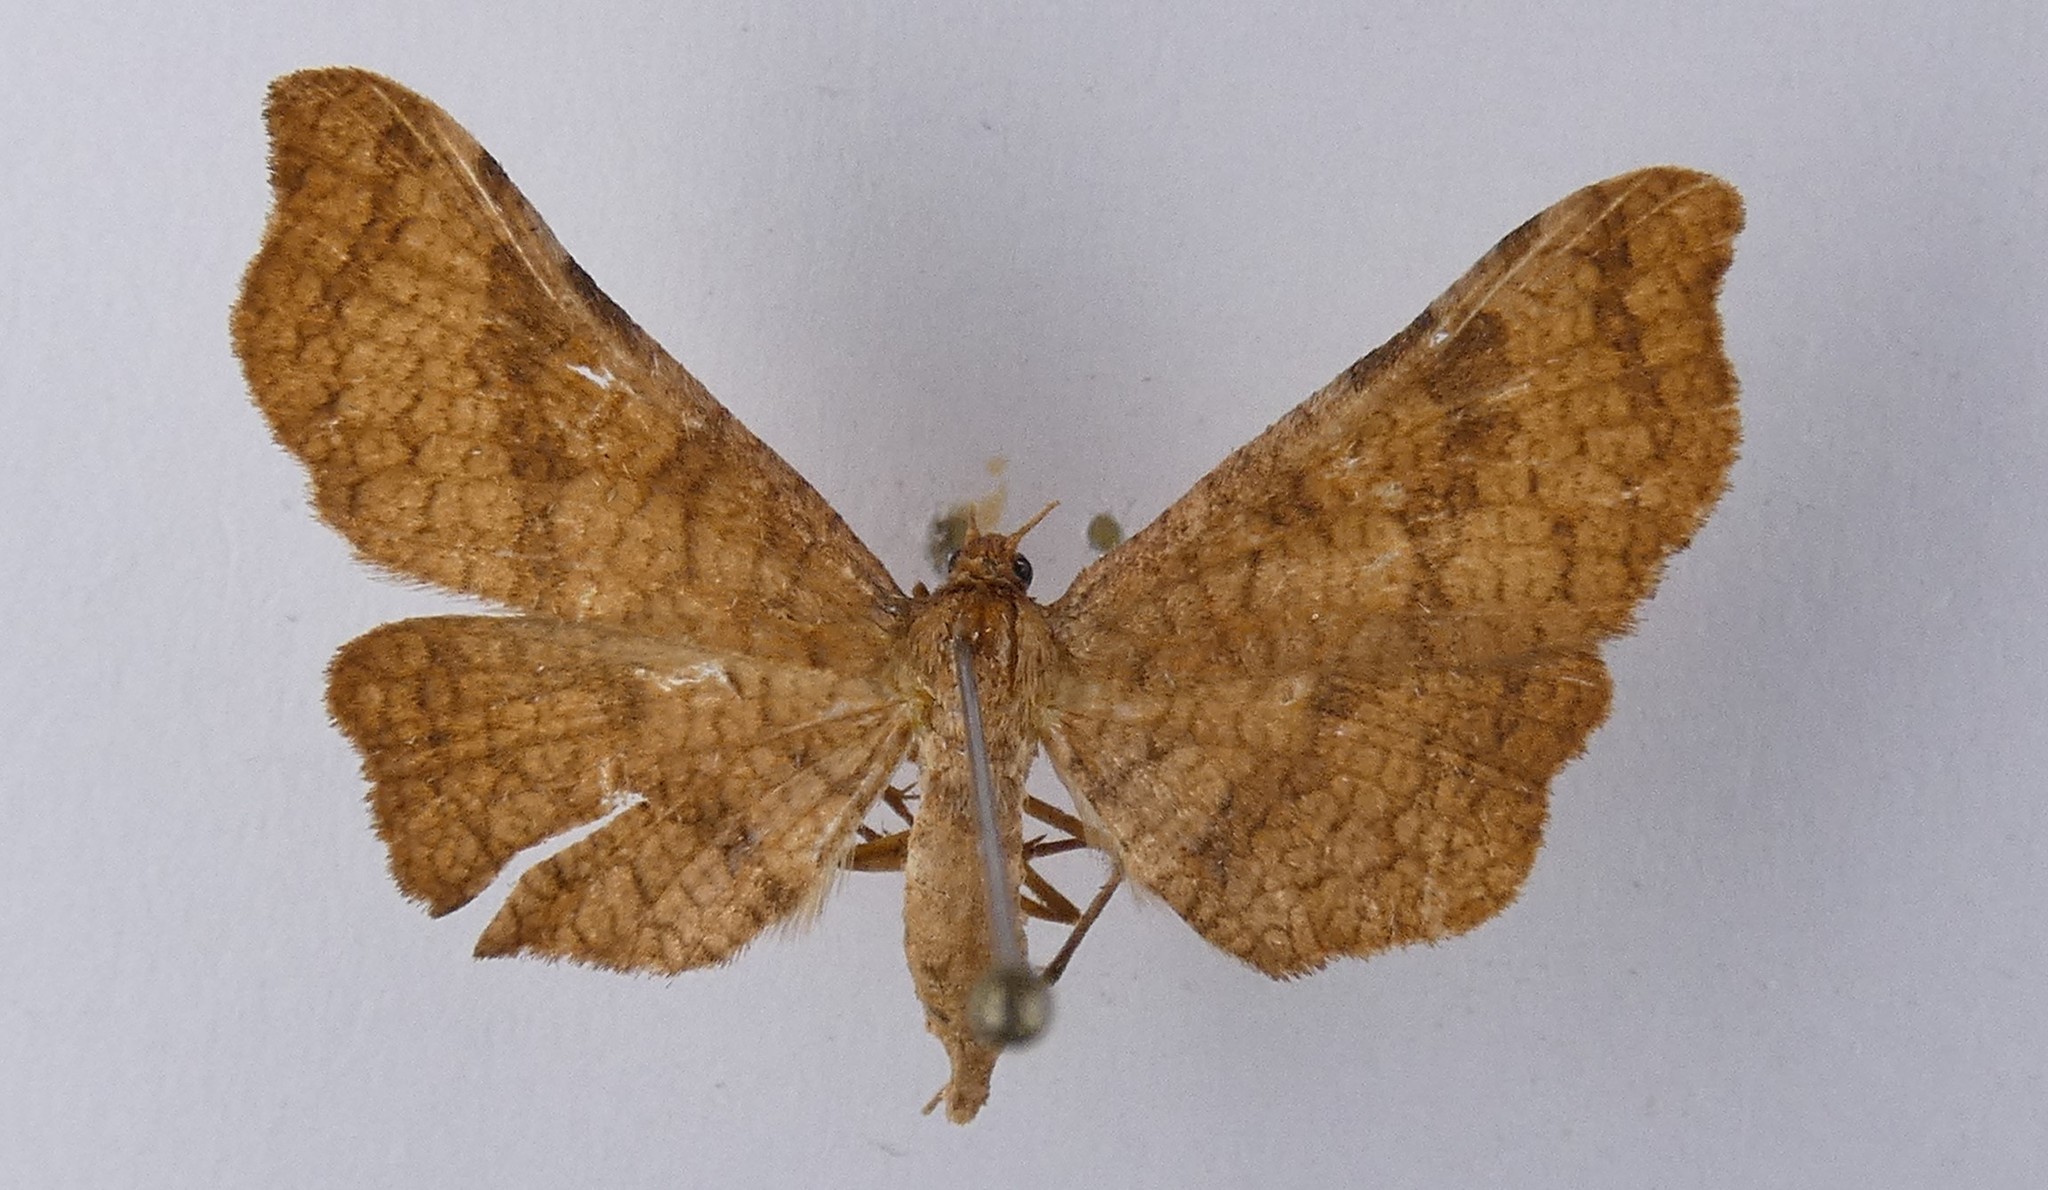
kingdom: Animalia
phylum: Arthropoda
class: Insecta
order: Lepidoptera
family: Thyrididae
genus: Morova
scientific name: Morova subfasciata
